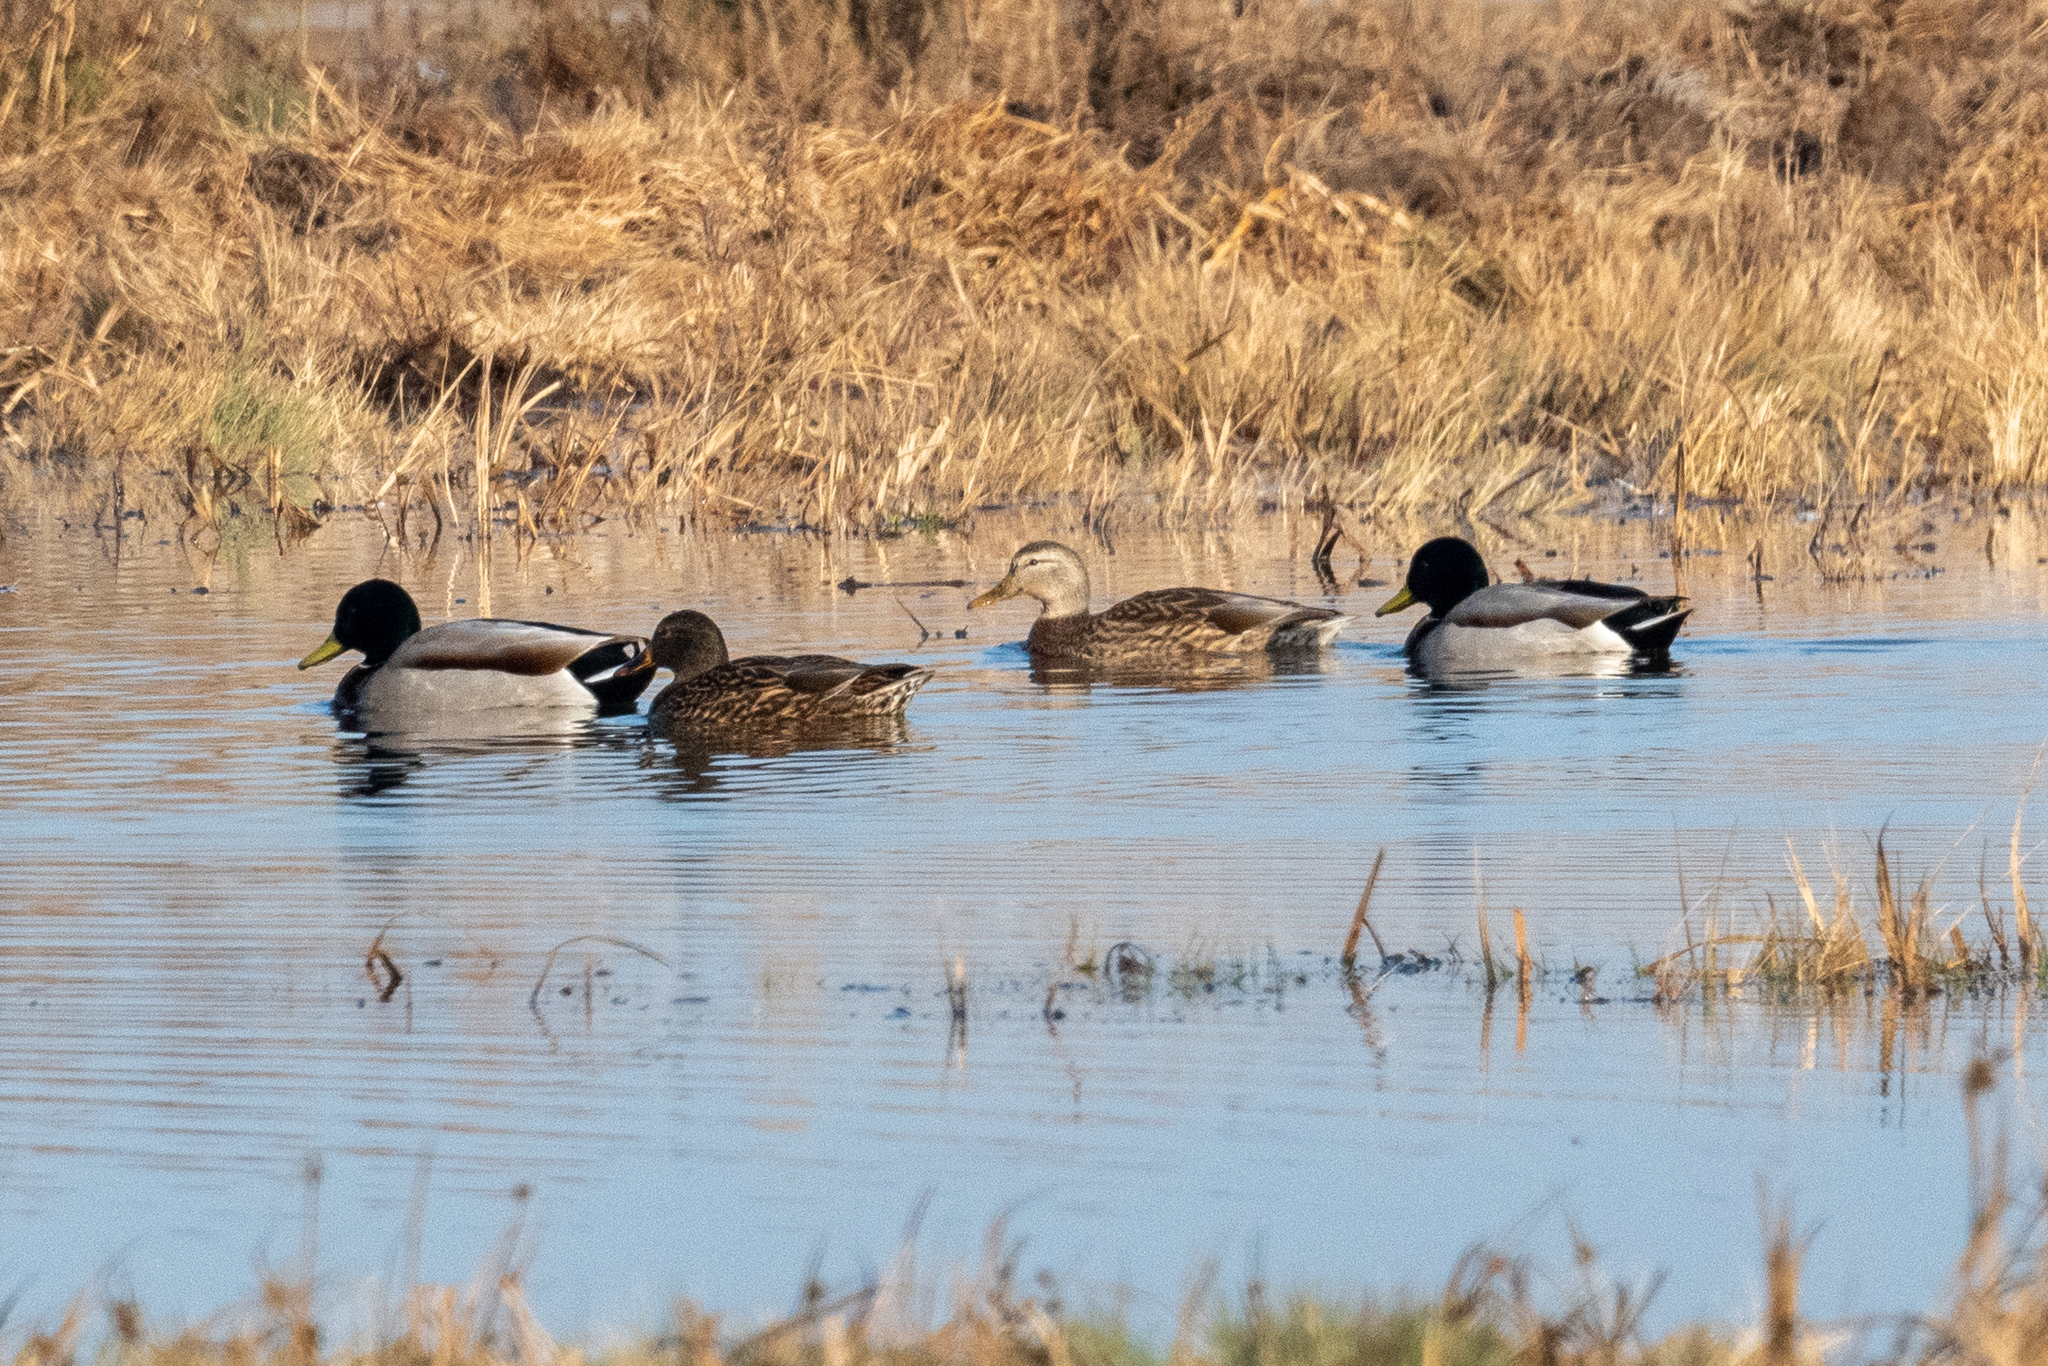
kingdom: Animalia
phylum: Chordata
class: Aves
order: Anseriformes
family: Anatidae
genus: Anas
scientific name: Anas platyrhynchos
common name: Mallard
